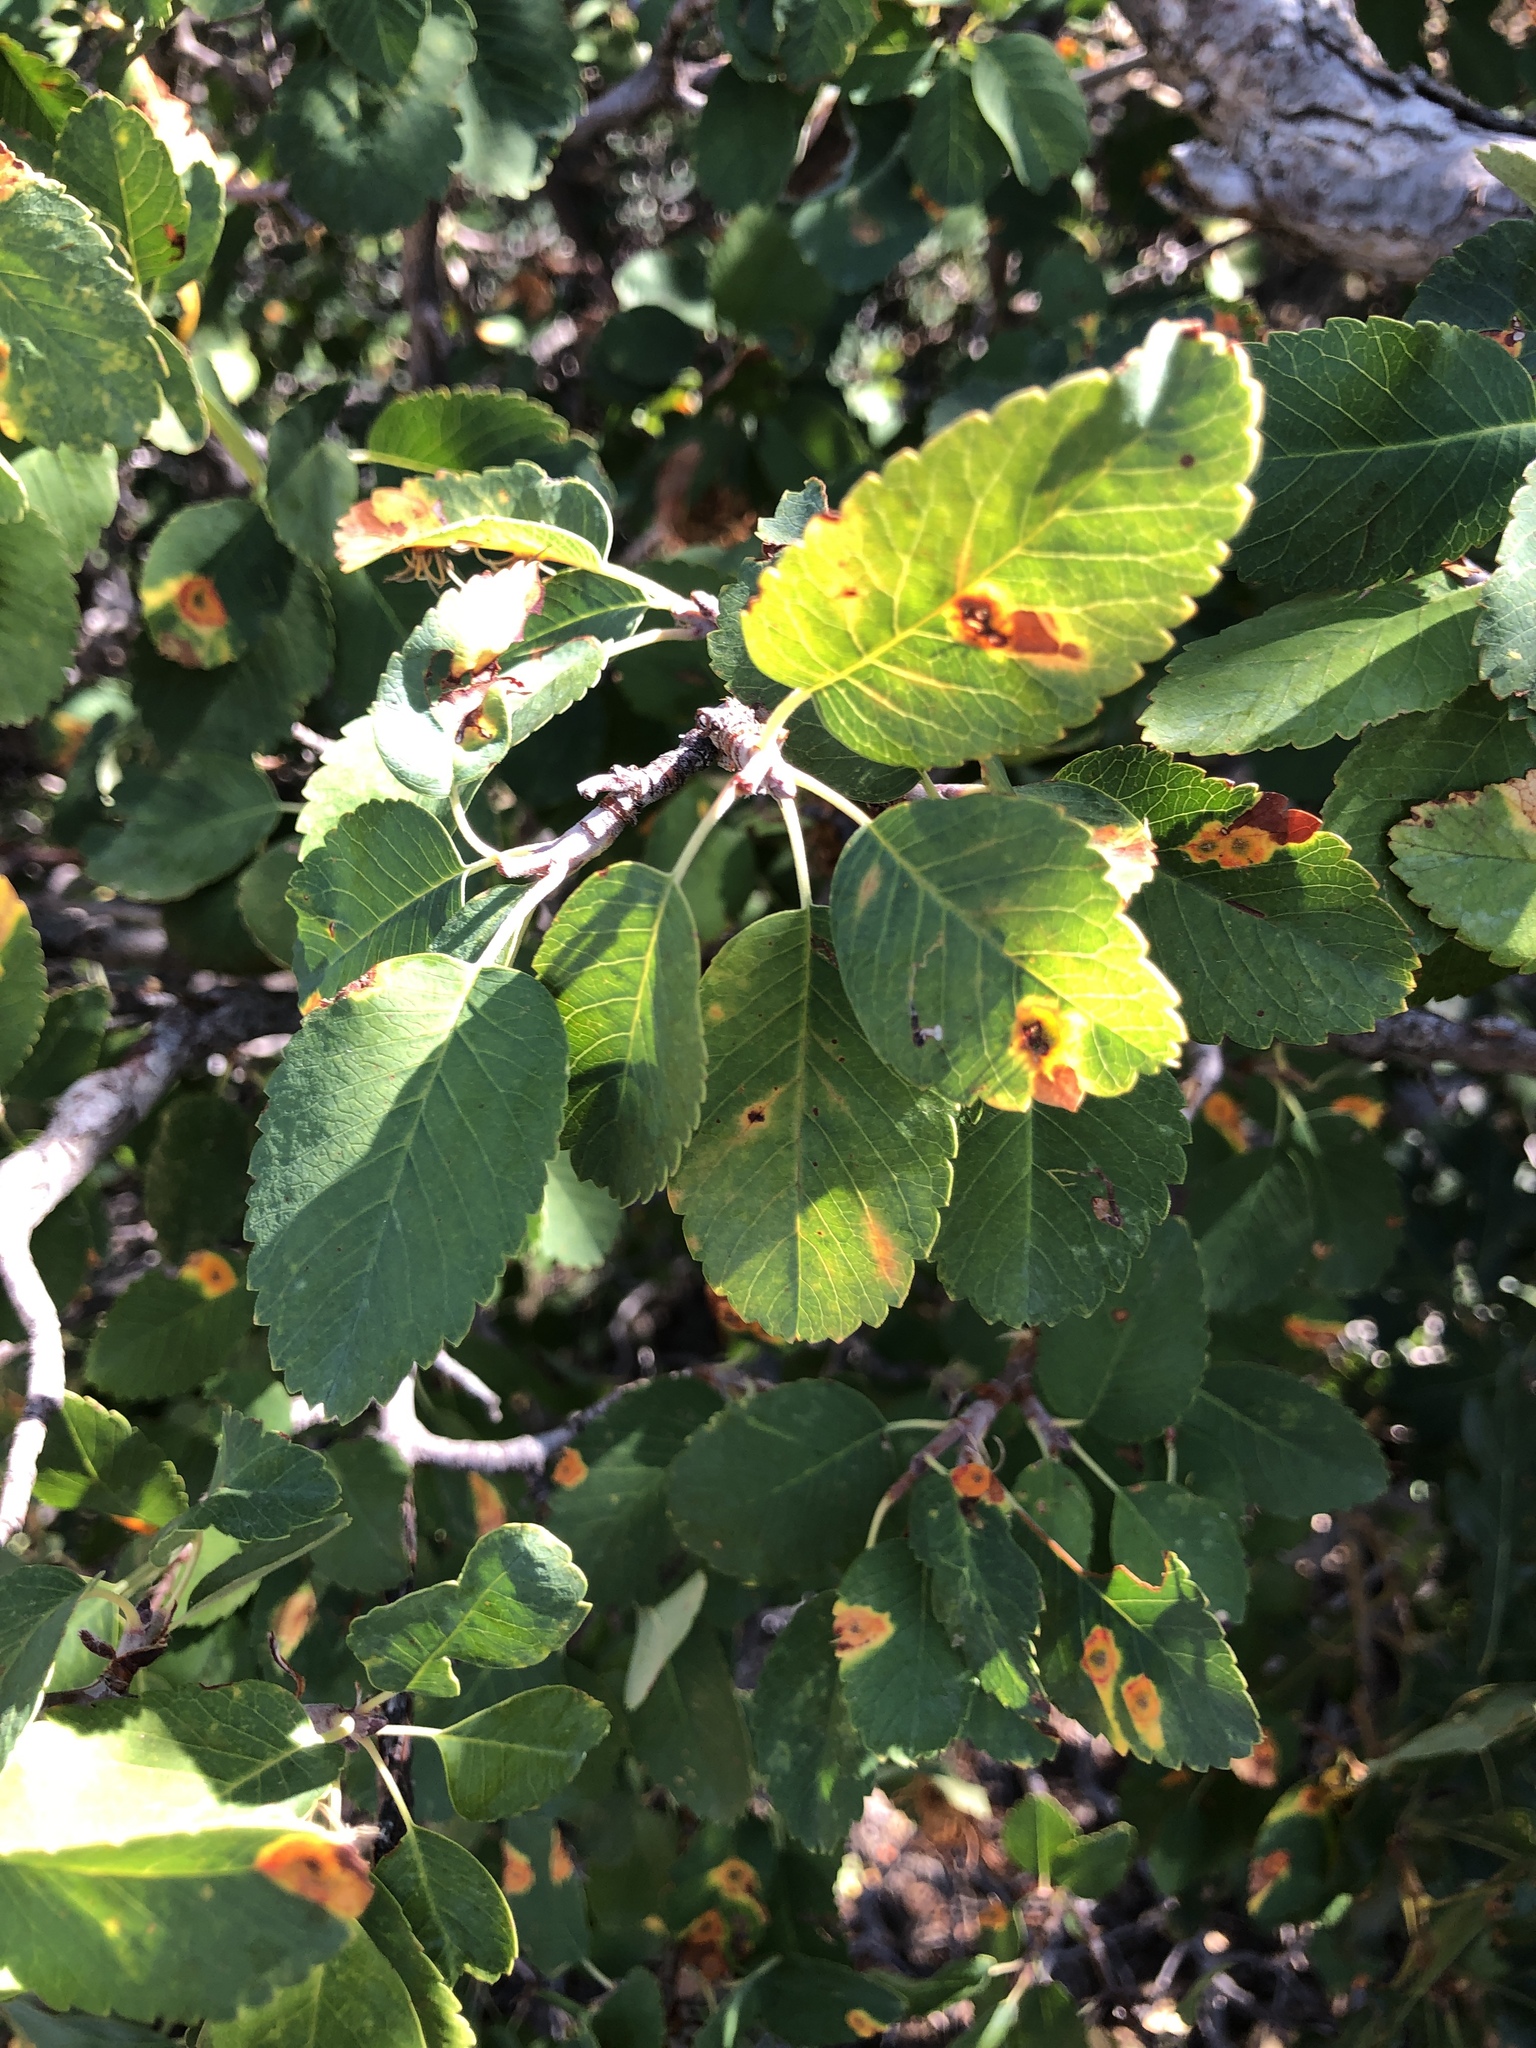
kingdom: Plantae
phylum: Tracheophyta
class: Magnoliopsida
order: Rosales
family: Rosaceae
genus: Amelanchier
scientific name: Amelanchier utahensis
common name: Utah serviceberry
